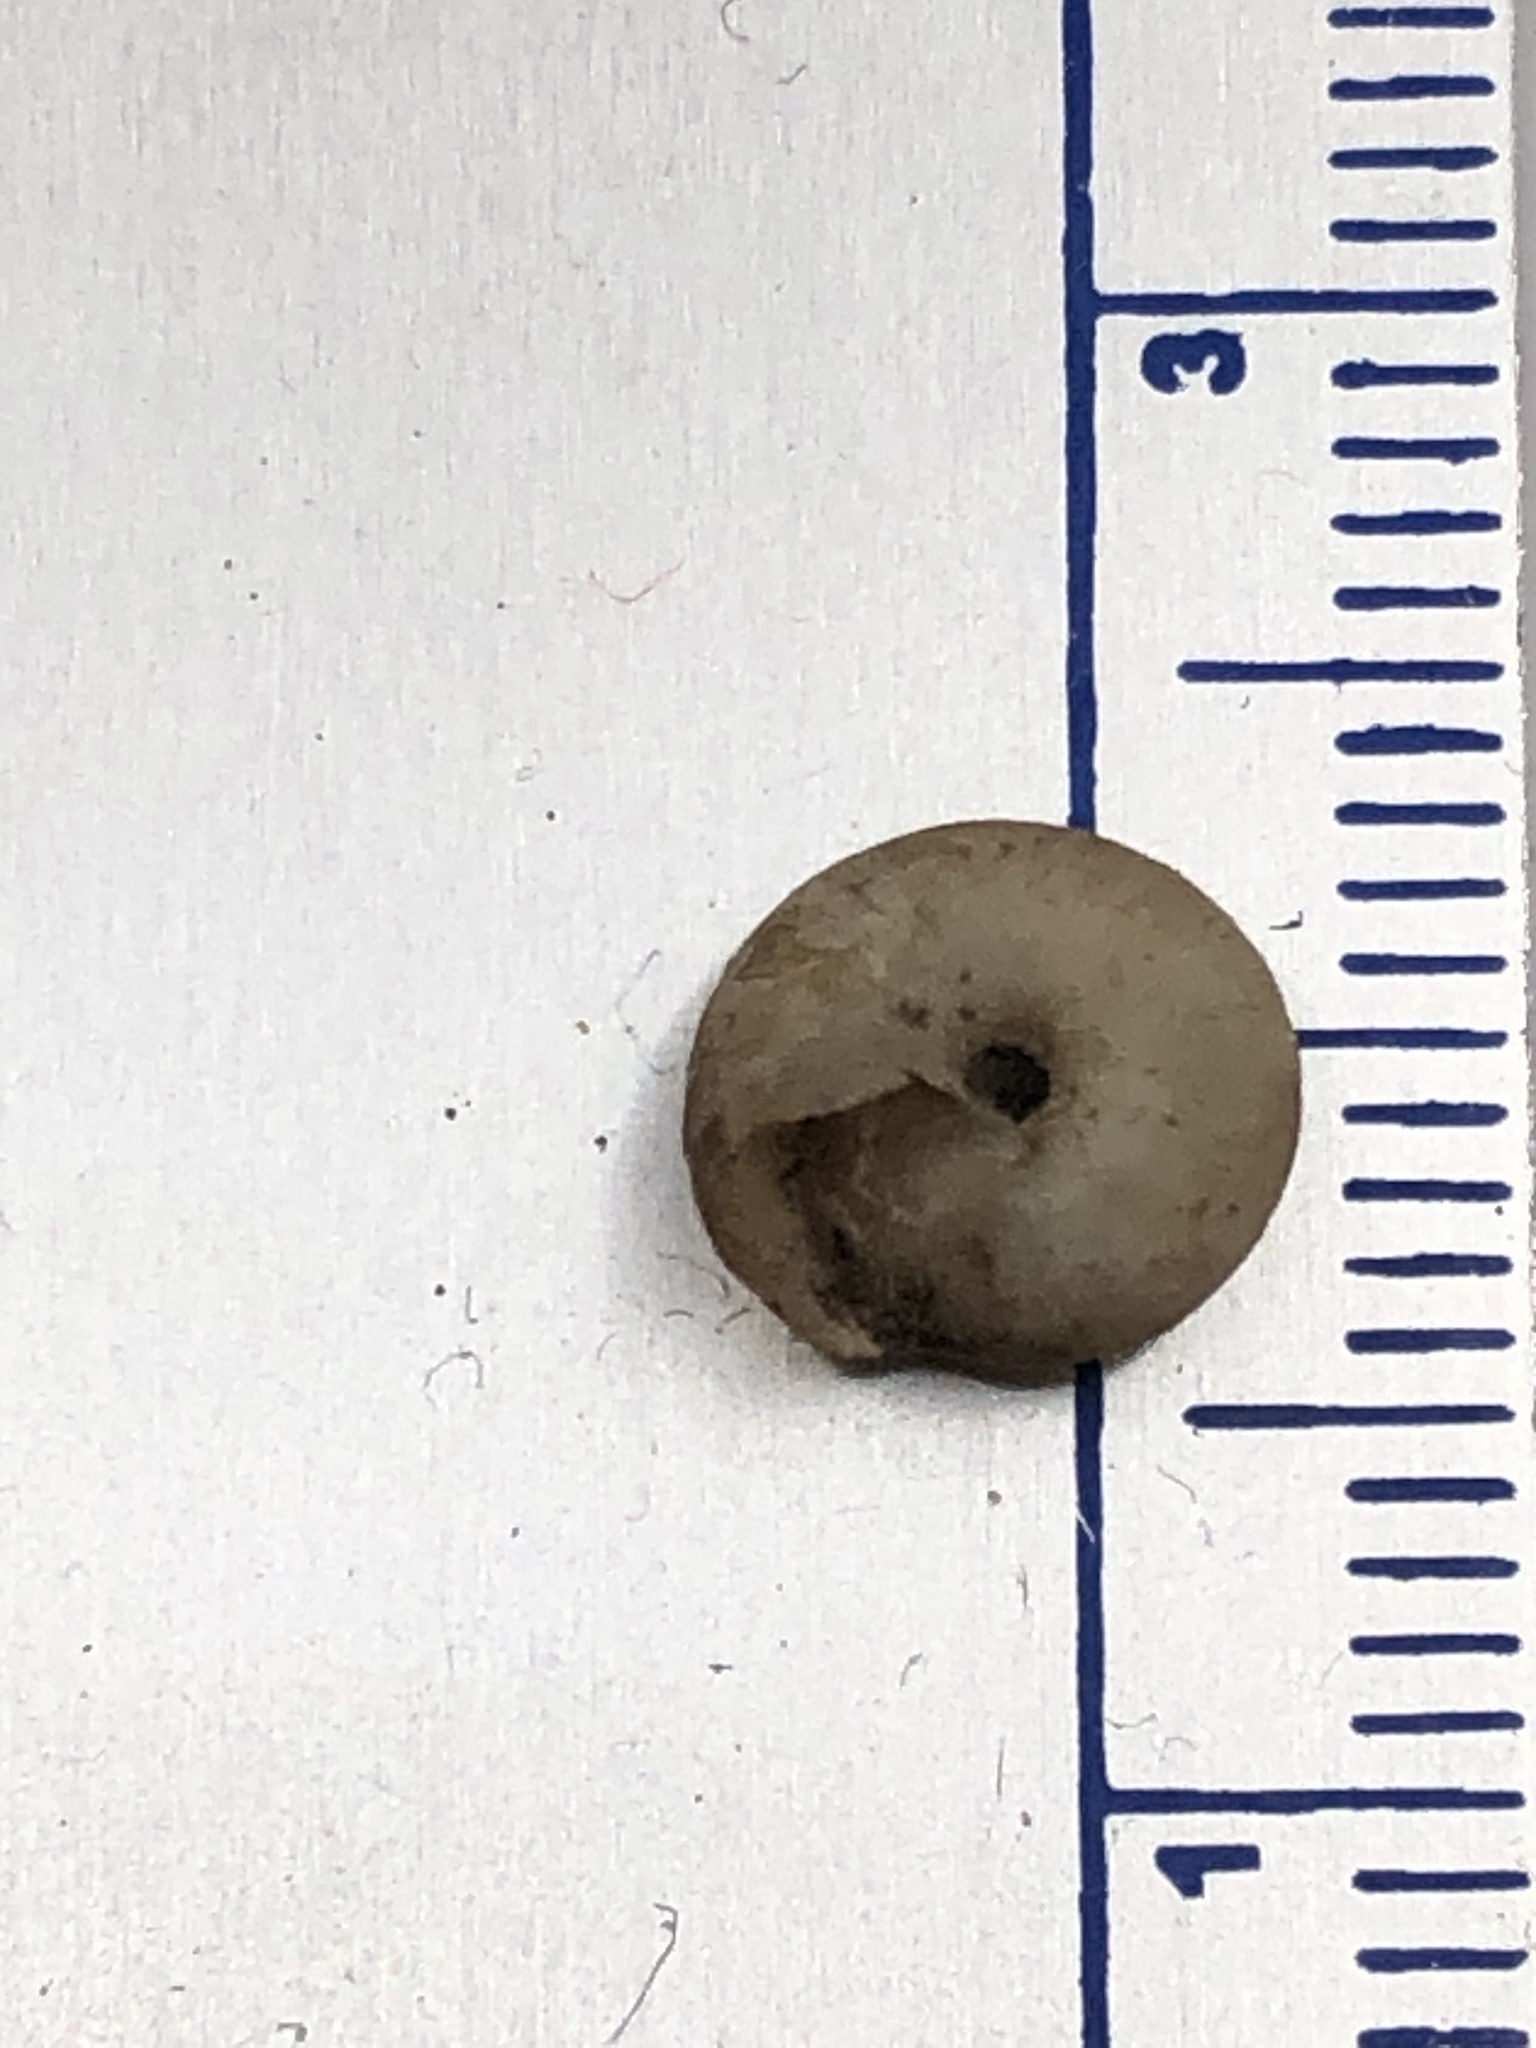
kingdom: Animalia
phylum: Mollusca
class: Gastropoda
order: Stylommatophora
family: Hygromiidae
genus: Trochulus
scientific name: Trochulus hispidus
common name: Hairy snail
